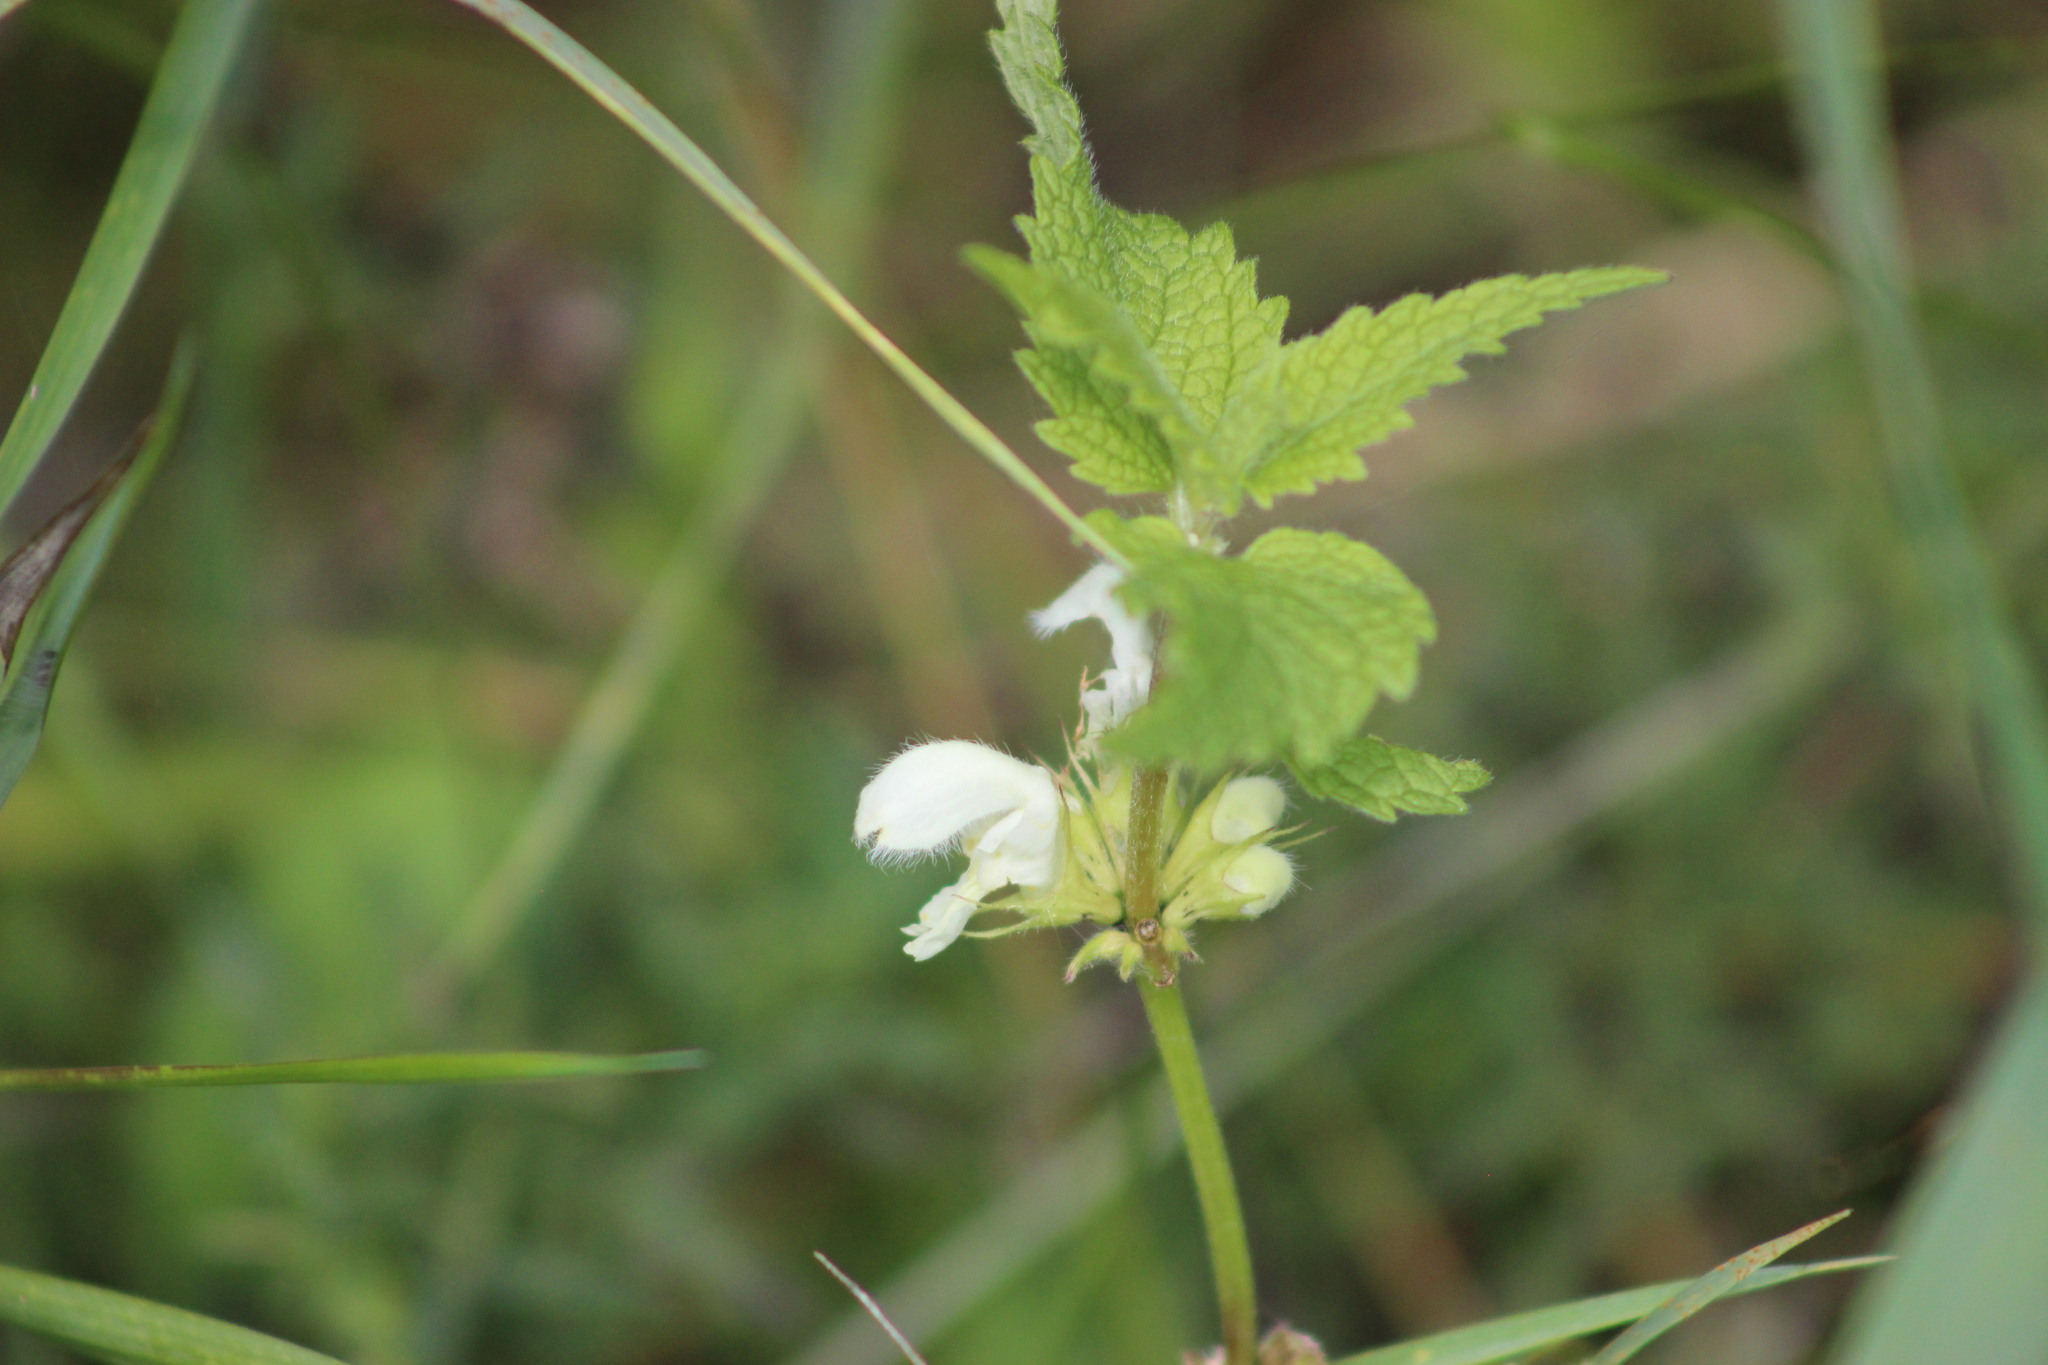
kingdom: Plantae
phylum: Tracheophyta
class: Magnoliopsida
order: Lamiales
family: Lamiaceae
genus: Lamium
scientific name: Lamium album
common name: White dead-nettle
